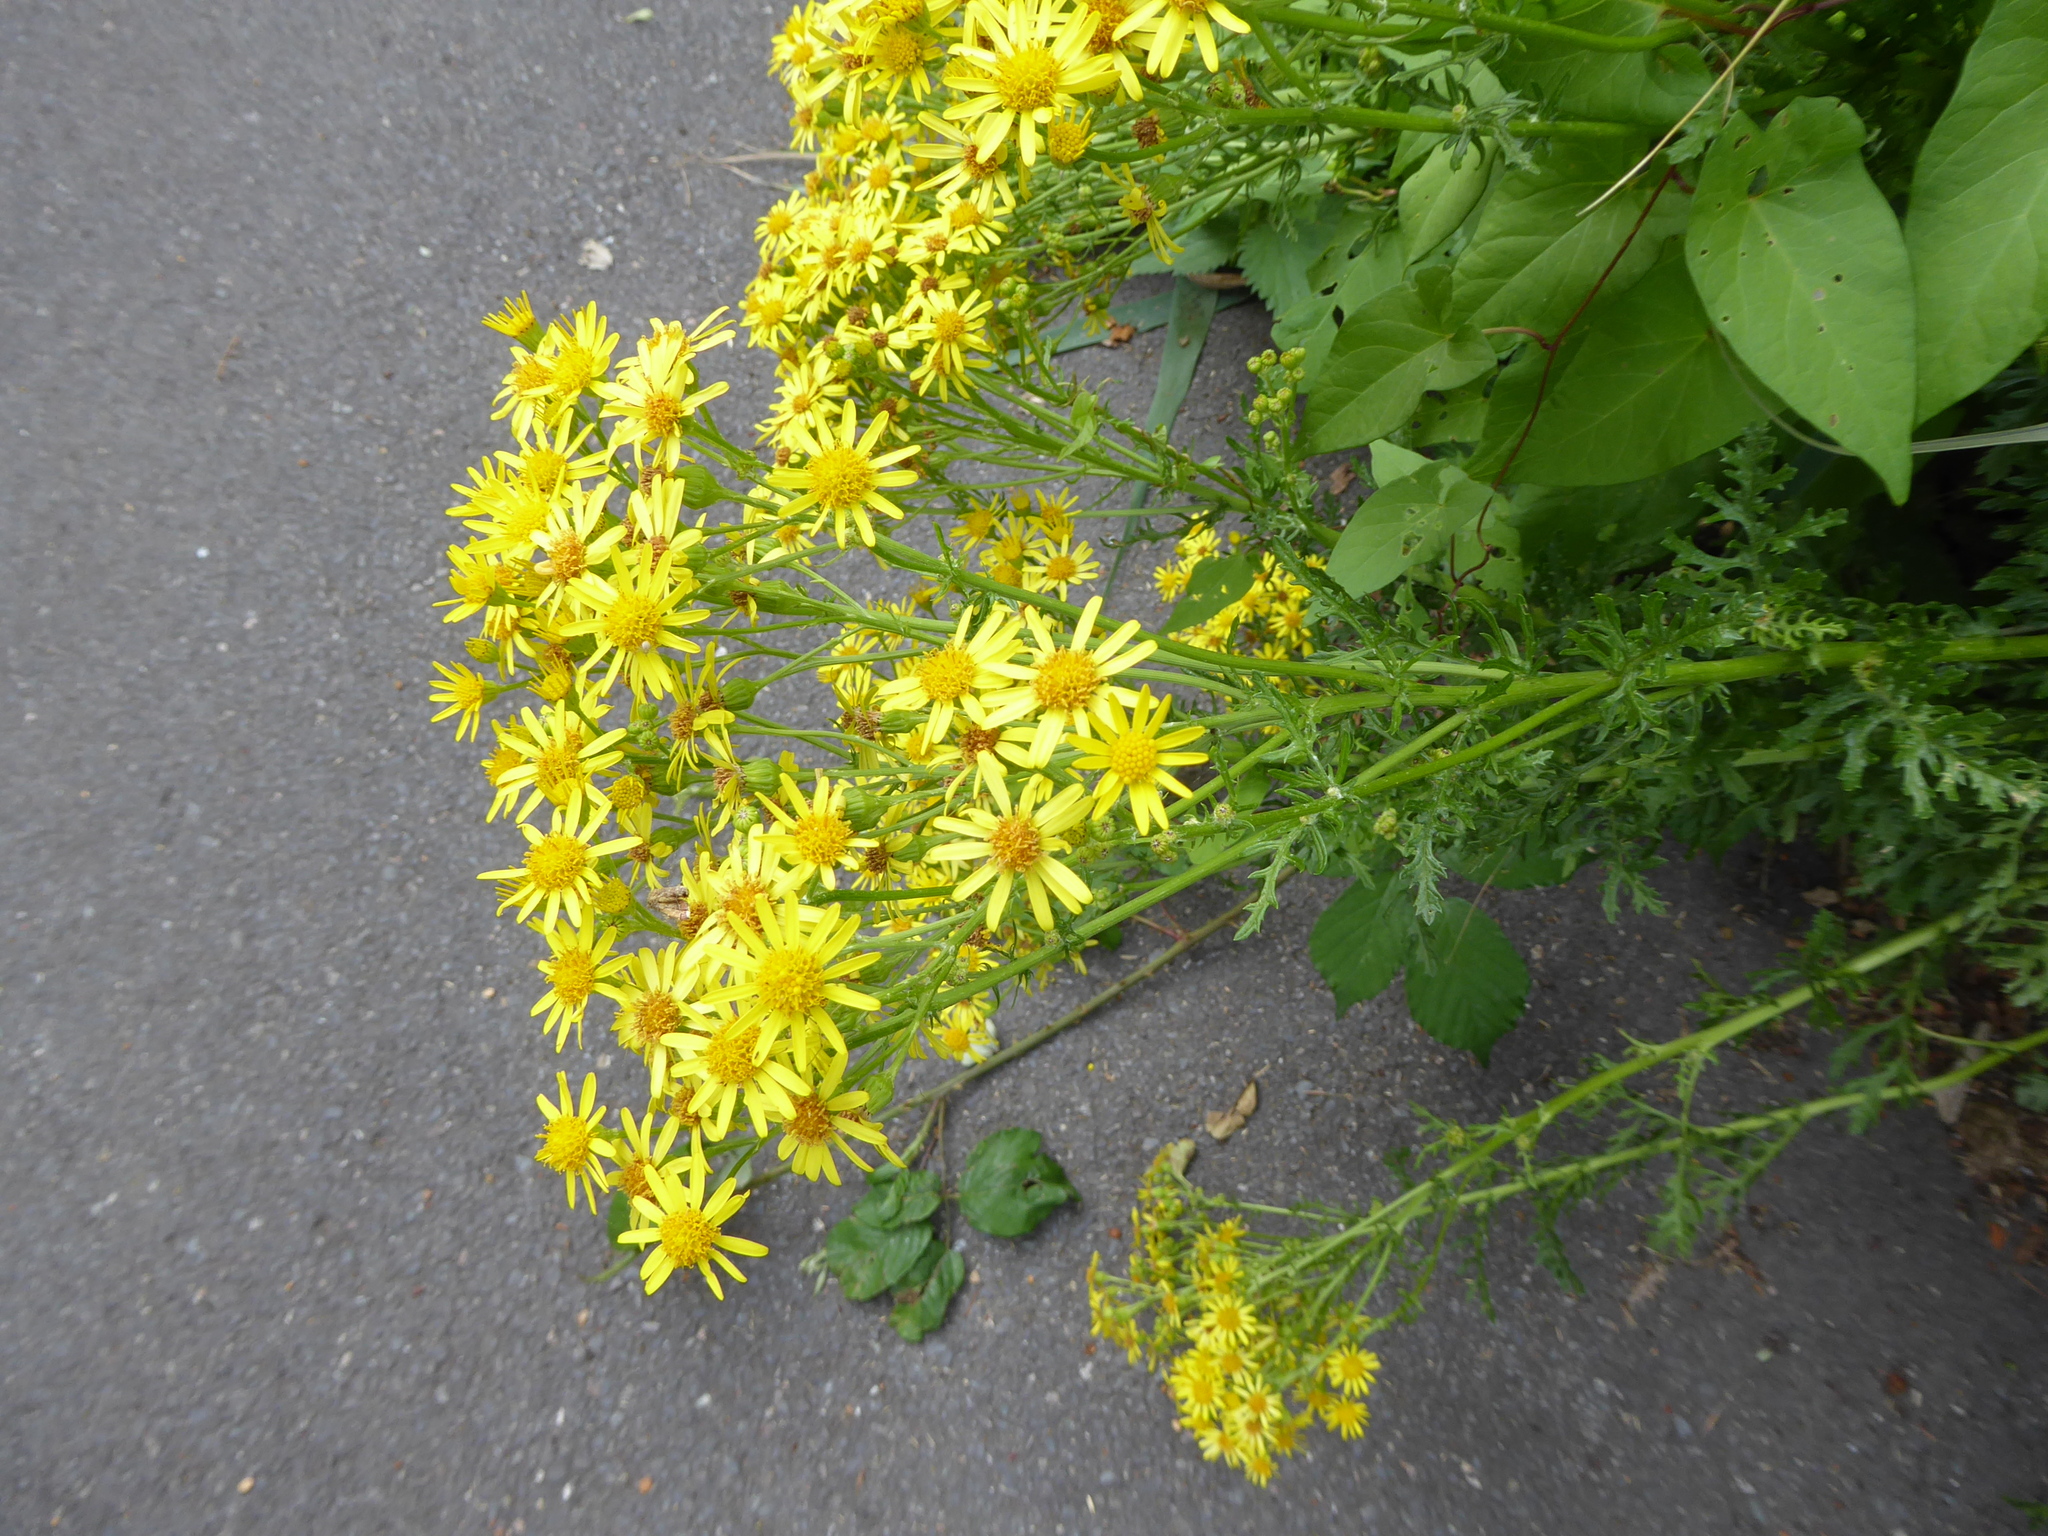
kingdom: Plantae
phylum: Tracheophyta
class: Magnoliopsida
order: Asterales
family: Asteraceae
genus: Jacobaea
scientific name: Jacobaea vulgaris
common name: Stinking willie
